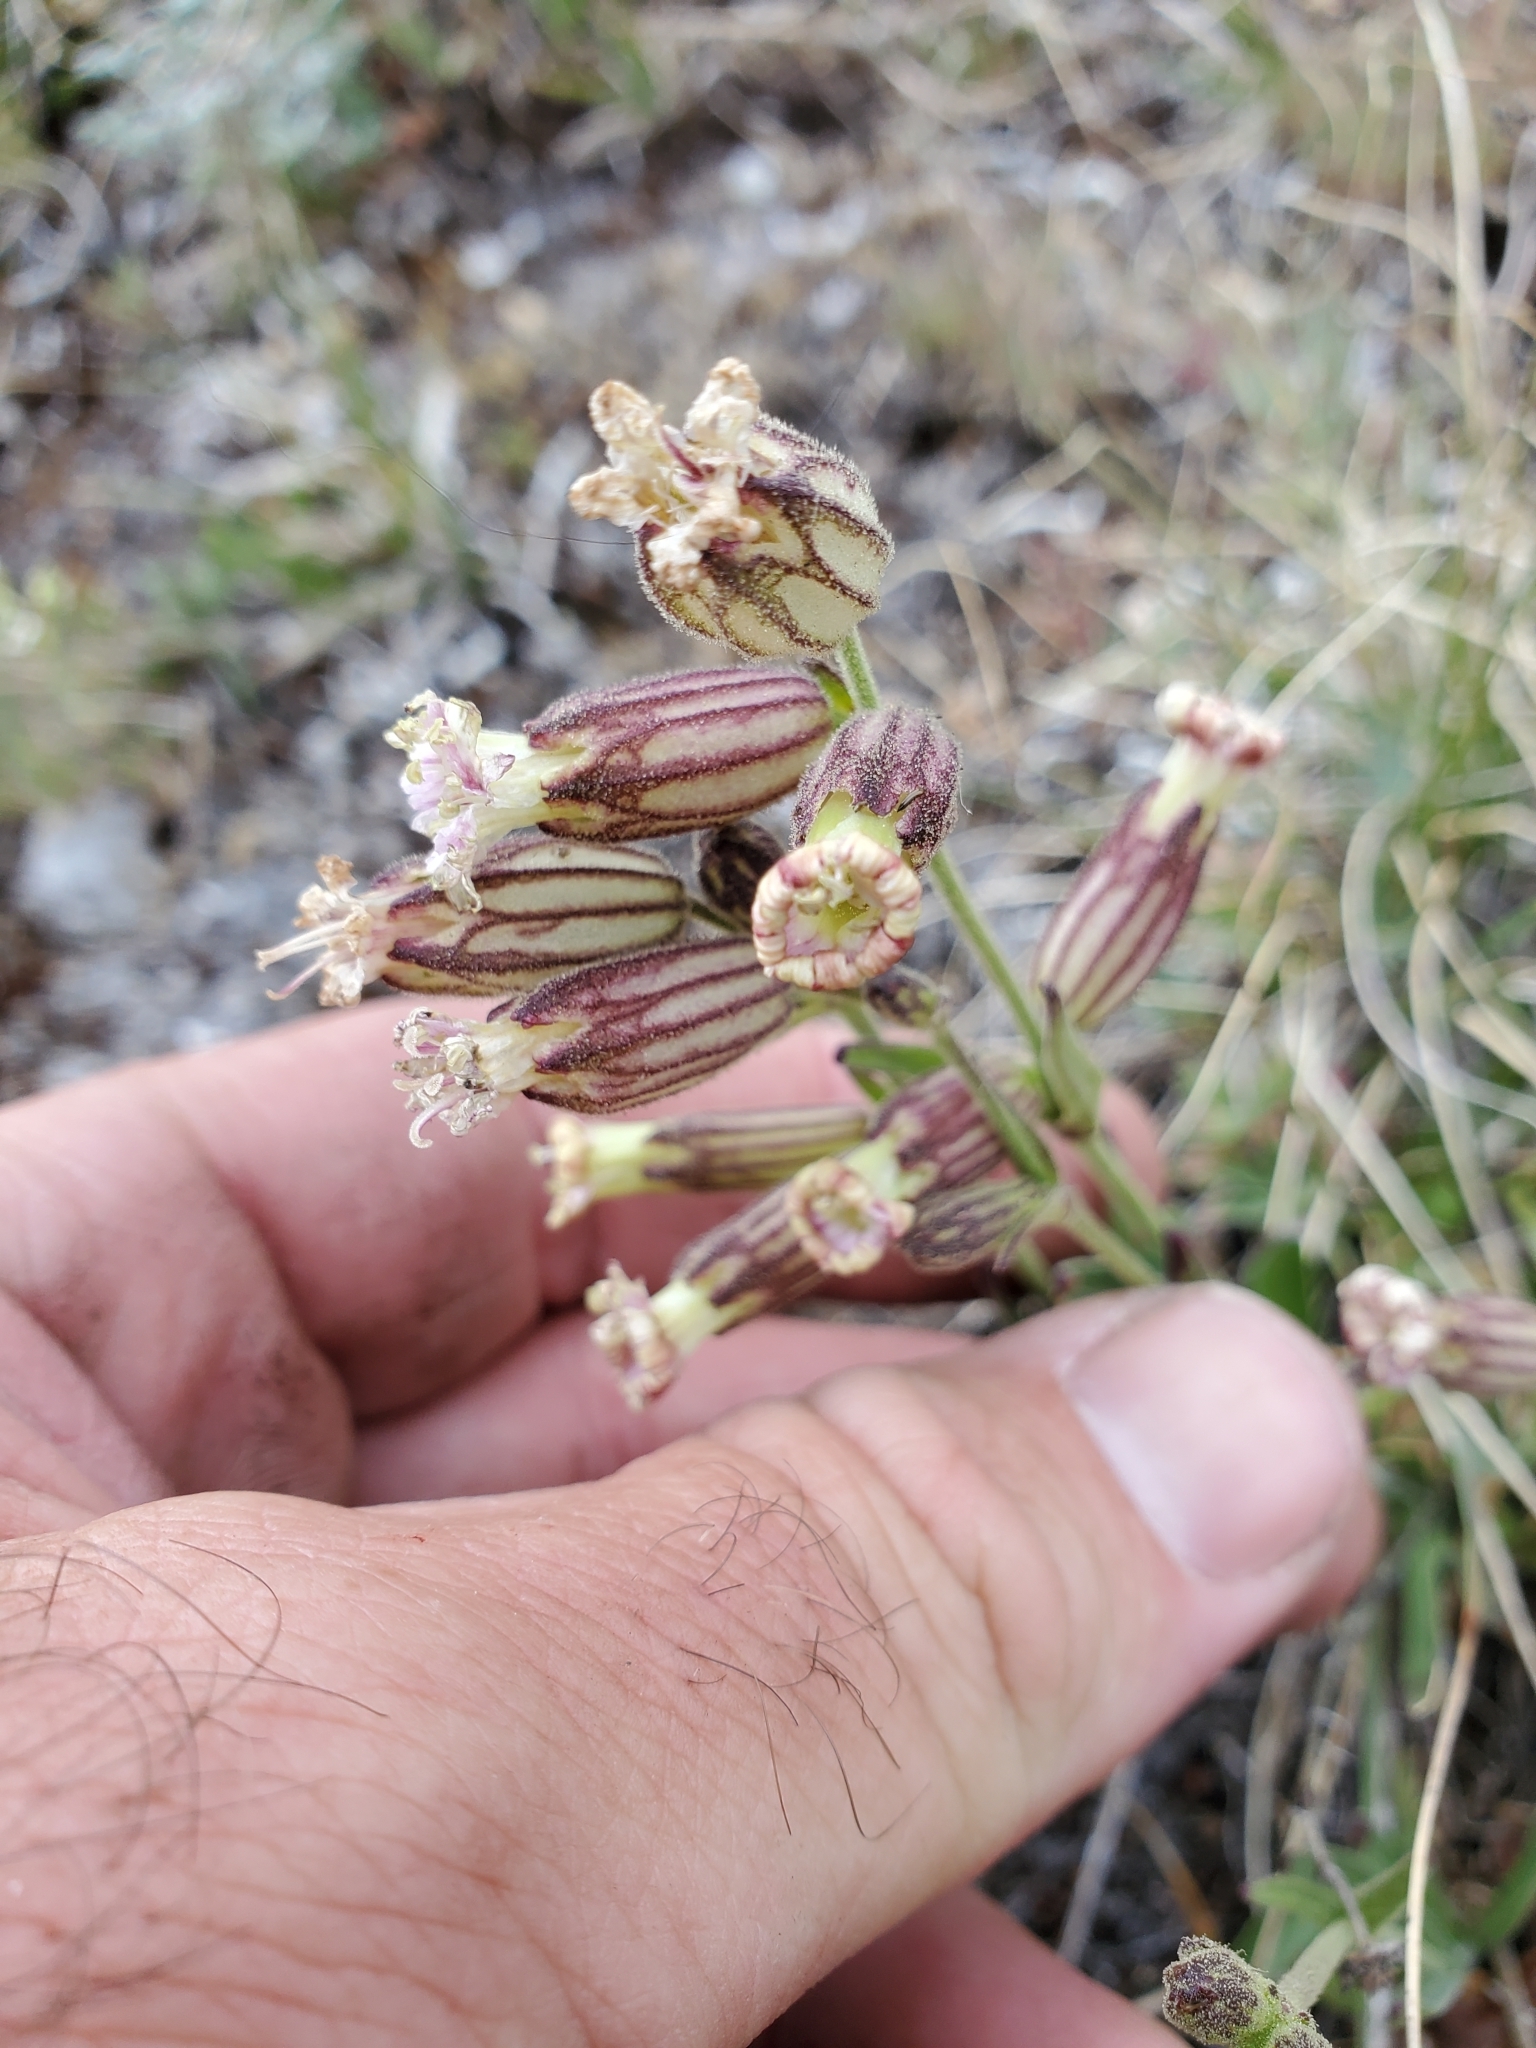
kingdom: Plantae
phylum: Tracheophyta
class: Magnoliopsida
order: Caryophyllales
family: Caryophyllaceae
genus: Silene
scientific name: Silene parryi
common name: Parry's campion
